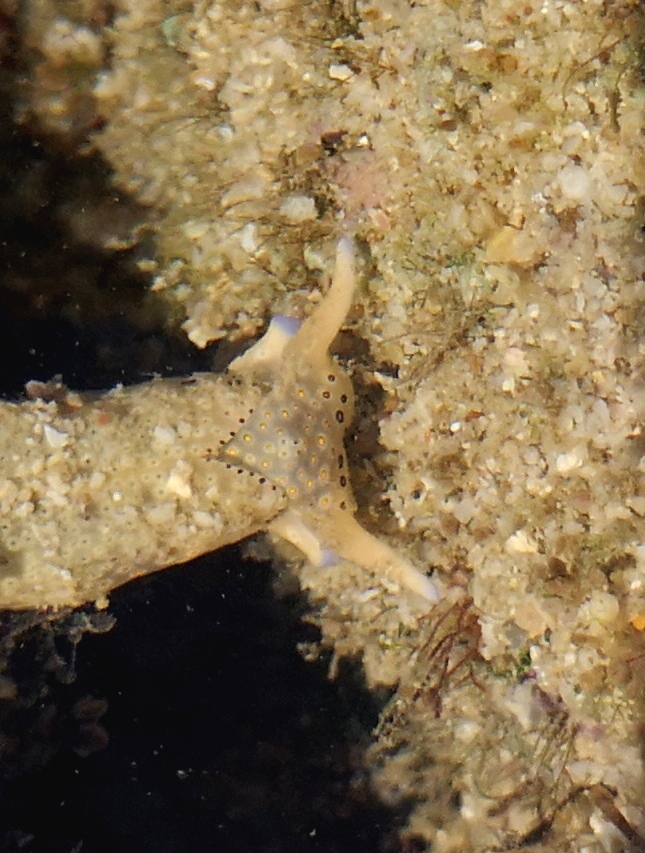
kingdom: Animalia
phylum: Mollusca
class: Gastropoda
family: Plakobranchidae
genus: Plakobranchus
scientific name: Plakobranchus ocellatus
